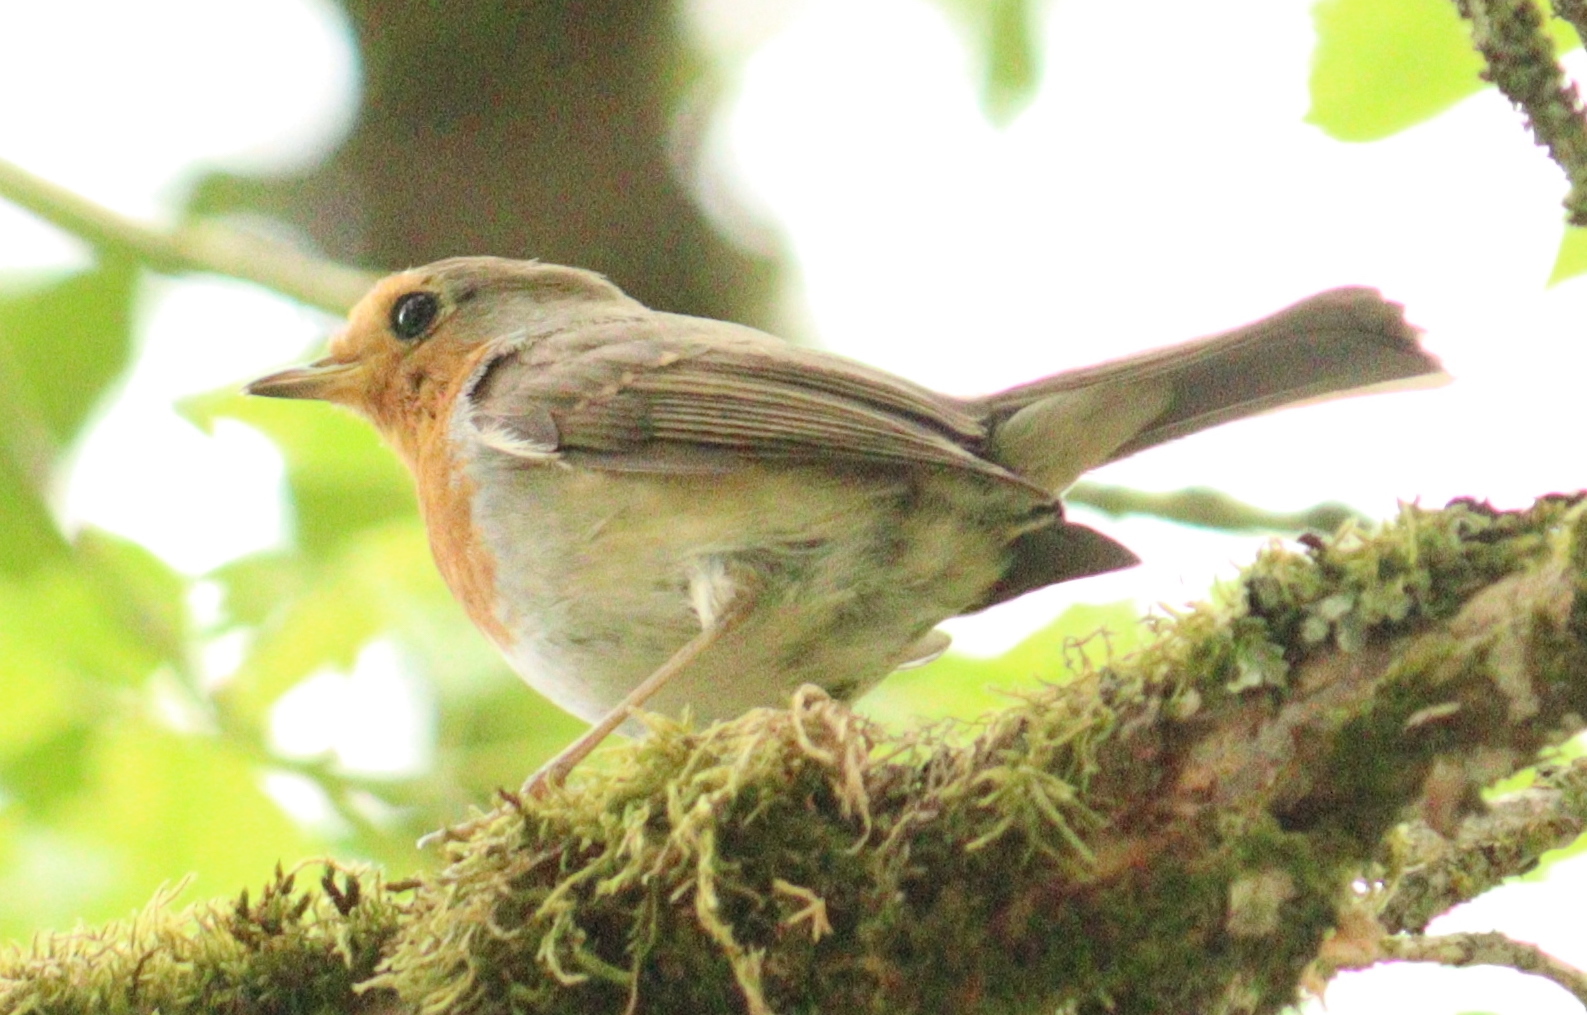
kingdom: Animalia
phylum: Chordata
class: Aves
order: Passeriformes
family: Muscicapidae
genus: Erithacus
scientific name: Erithacus rubecula
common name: European robin
